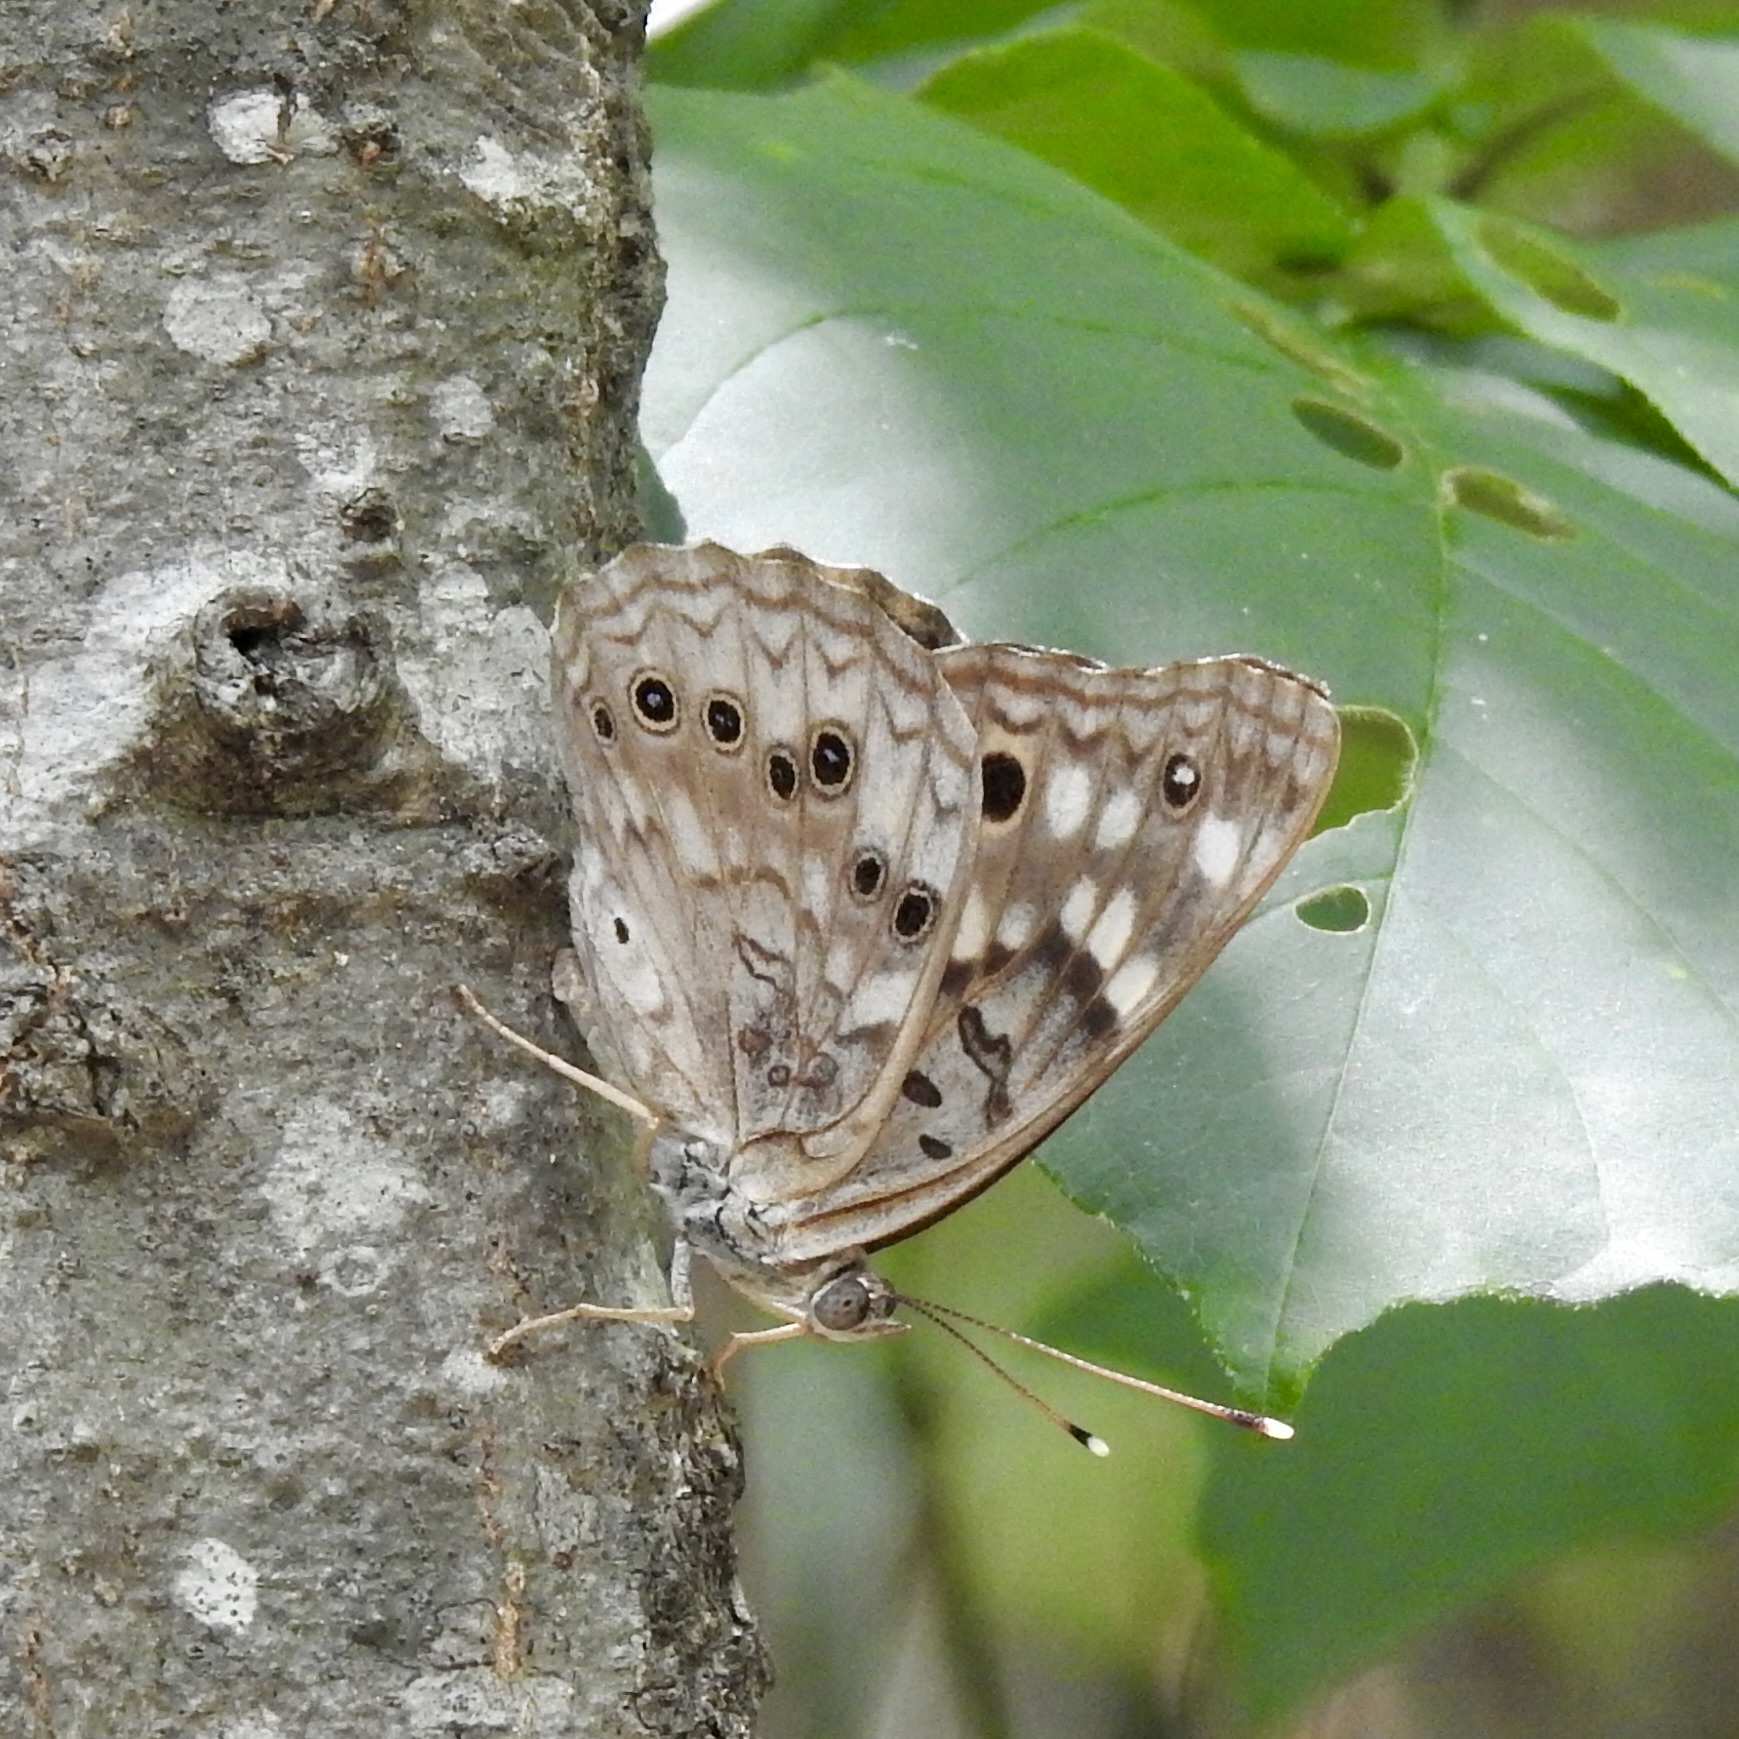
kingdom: Animalia
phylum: Arthropoda
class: Insecta
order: Lepidoptera
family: Nymphalidae
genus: Asterocampa
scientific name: Asterocampa celtis
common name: Hackberry emperor
